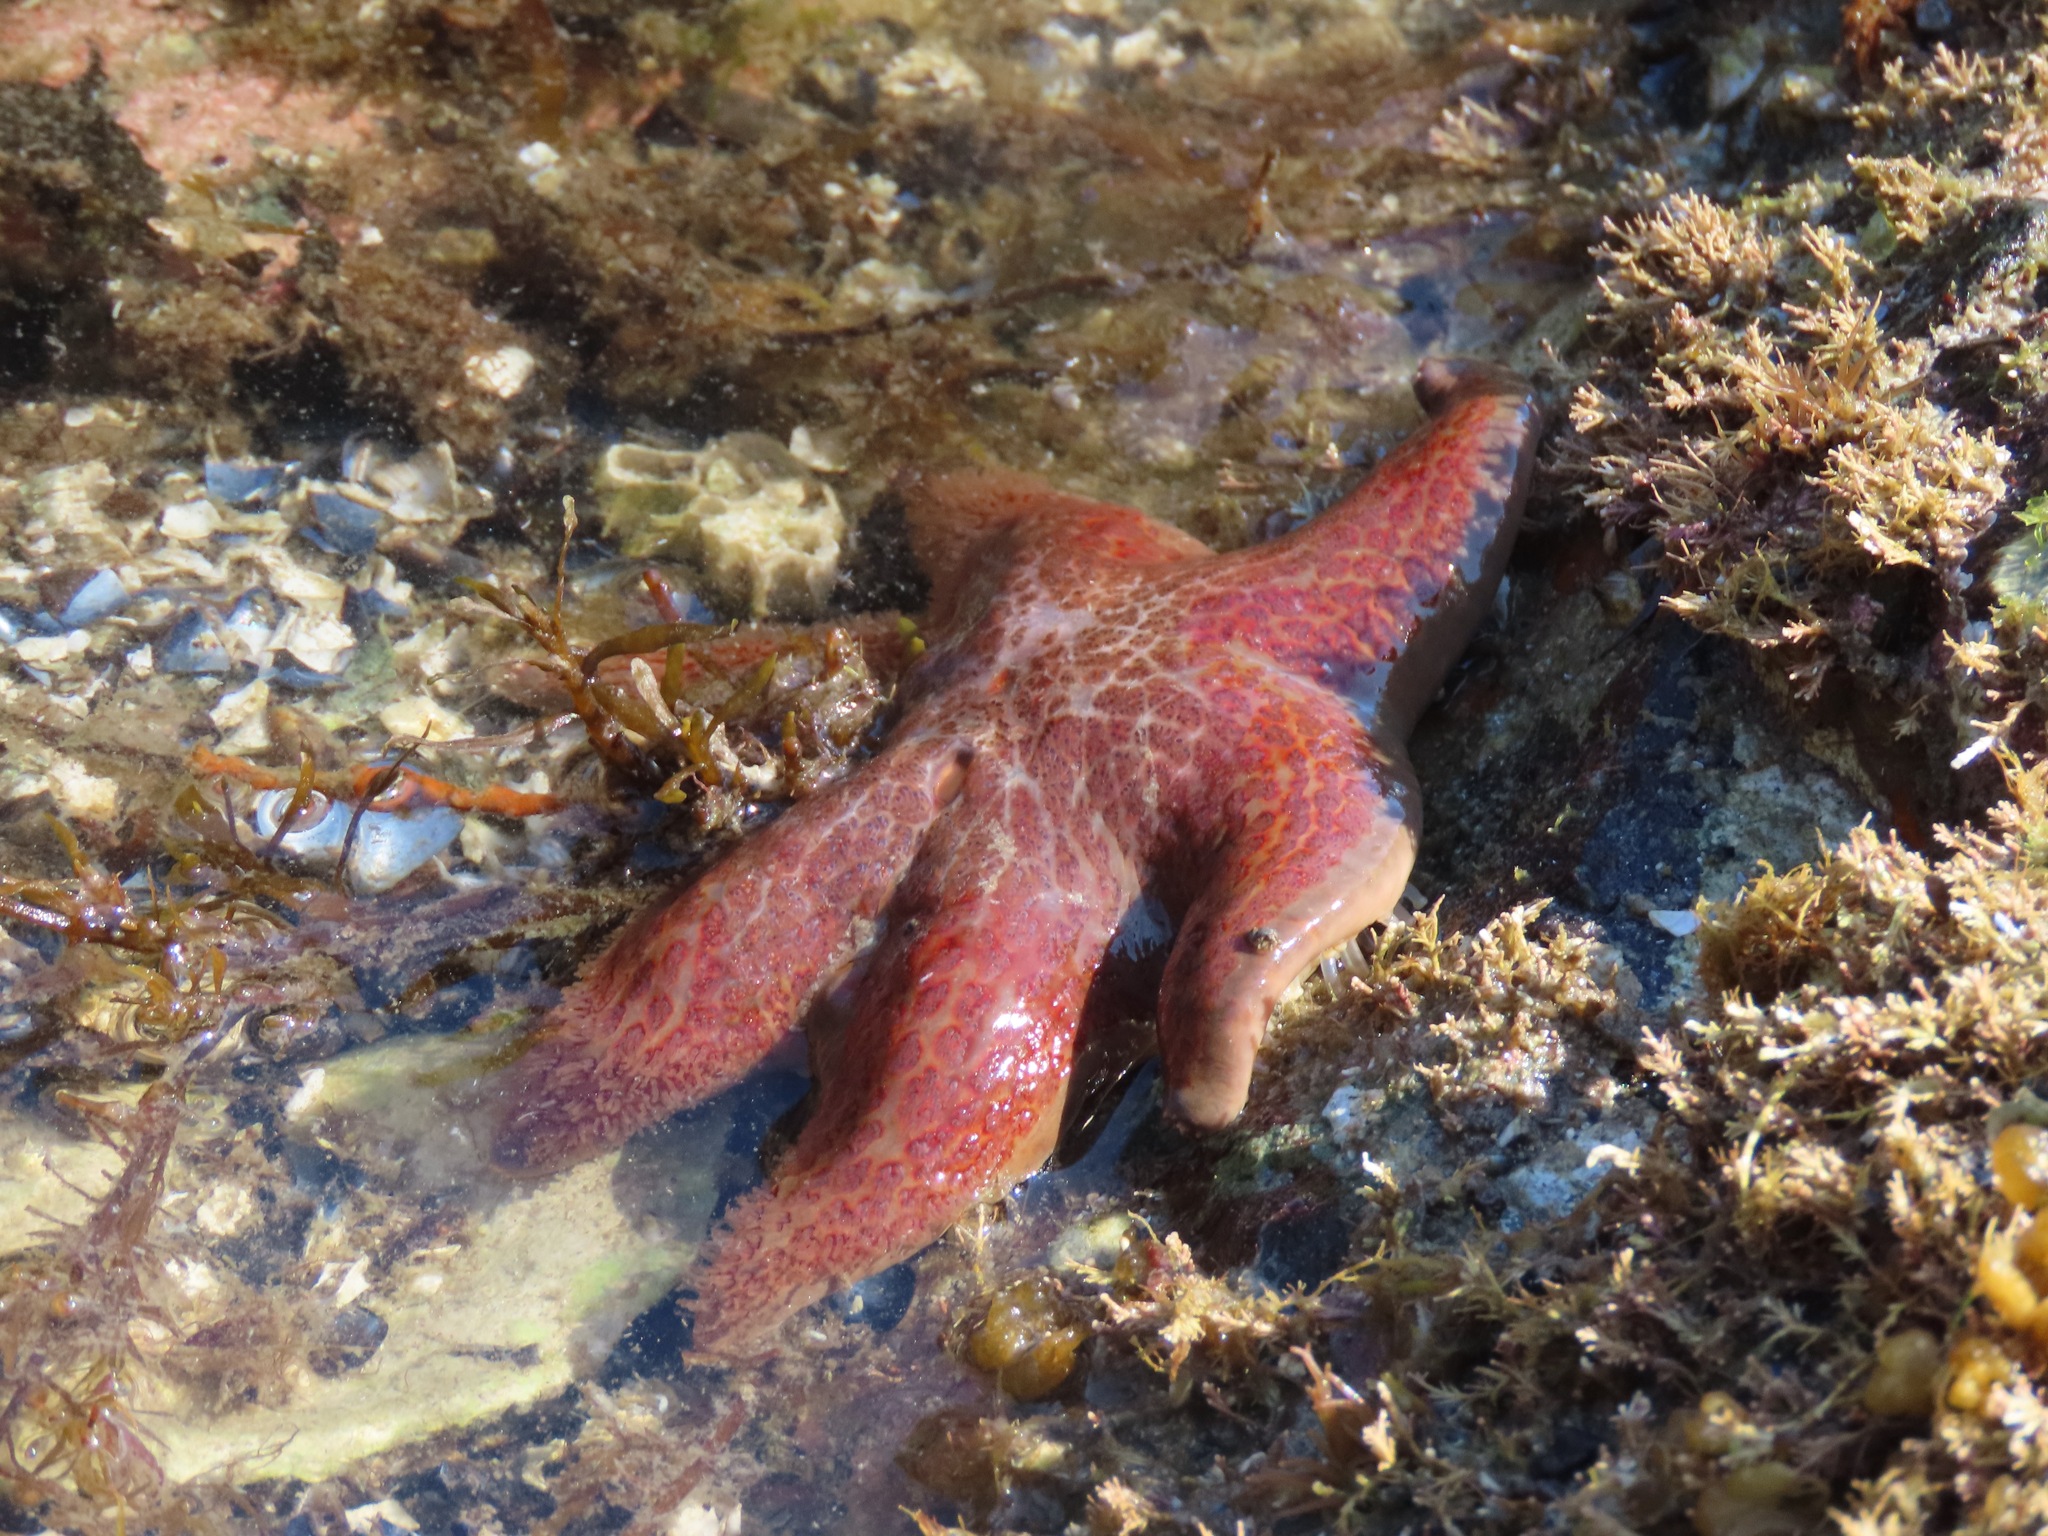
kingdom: Animalia
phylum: Echinodermata
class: Asteroidea
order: Valvatida
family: Asteropseidae
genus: Dermasterias
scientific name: Dermasterias imbricata
